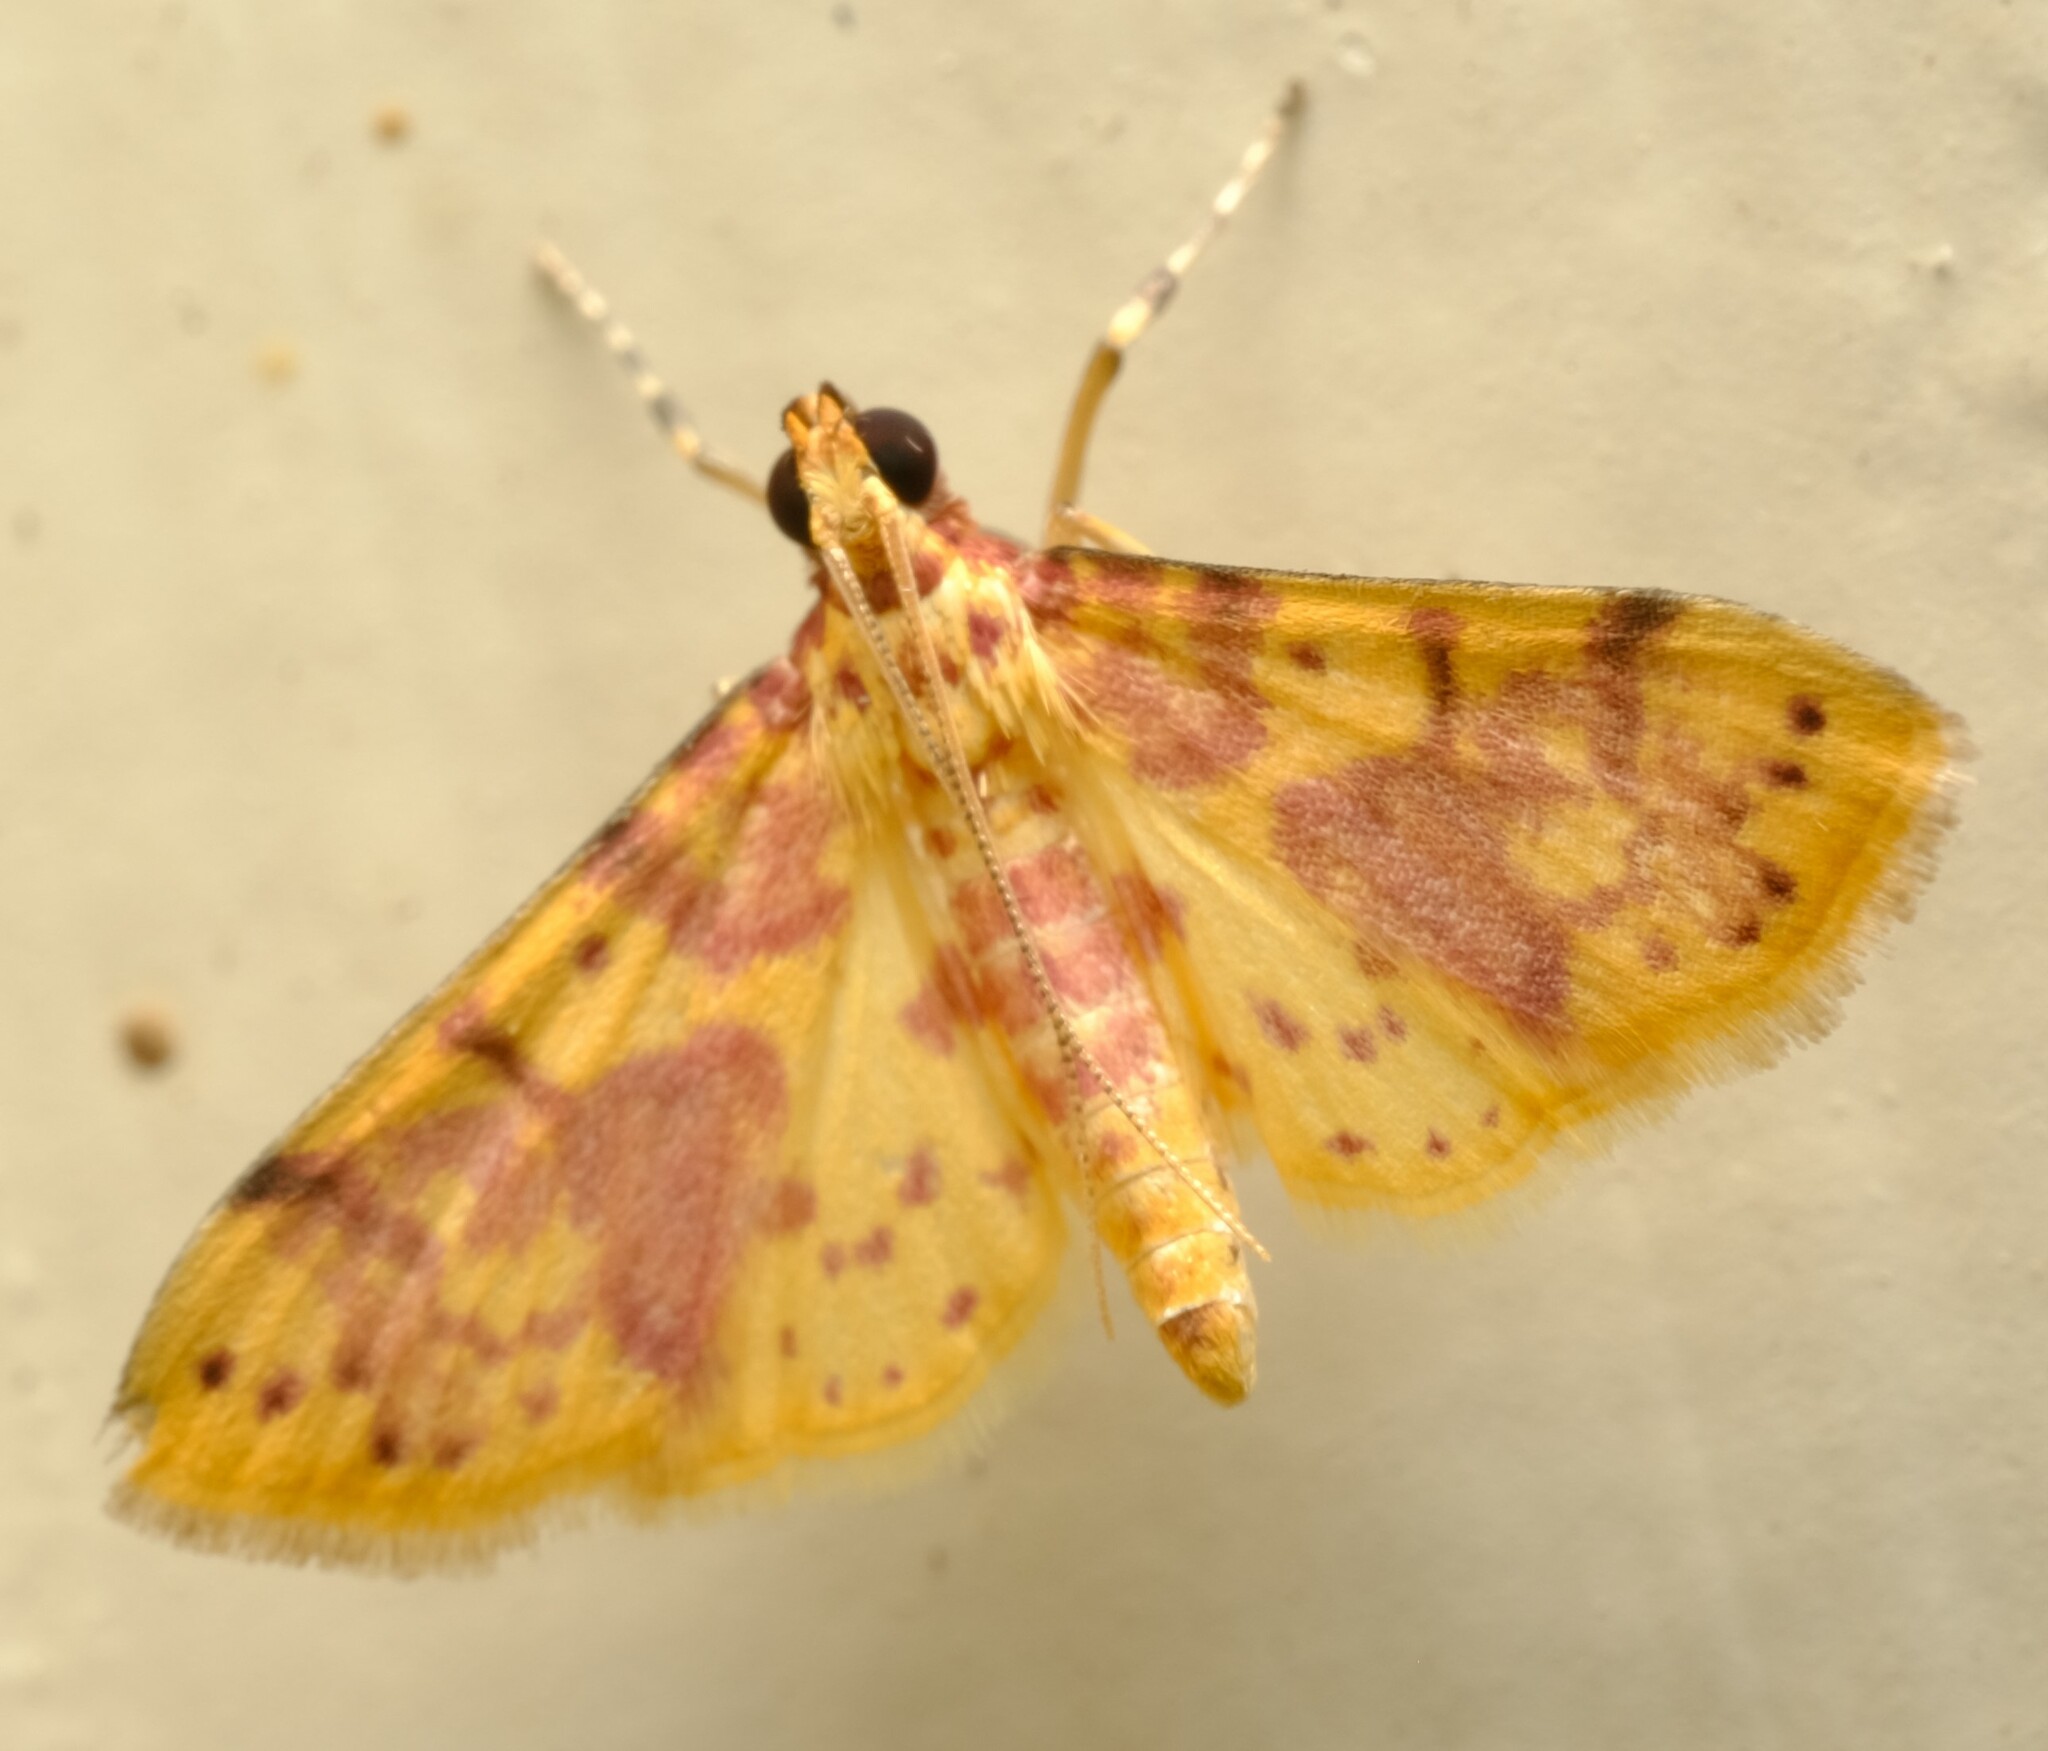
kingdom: Animalia
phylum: Arthropoda
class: Insecta
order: Lepidoptera
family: Crambidae
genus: Conogethes
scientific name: Conogethes haemactalis
